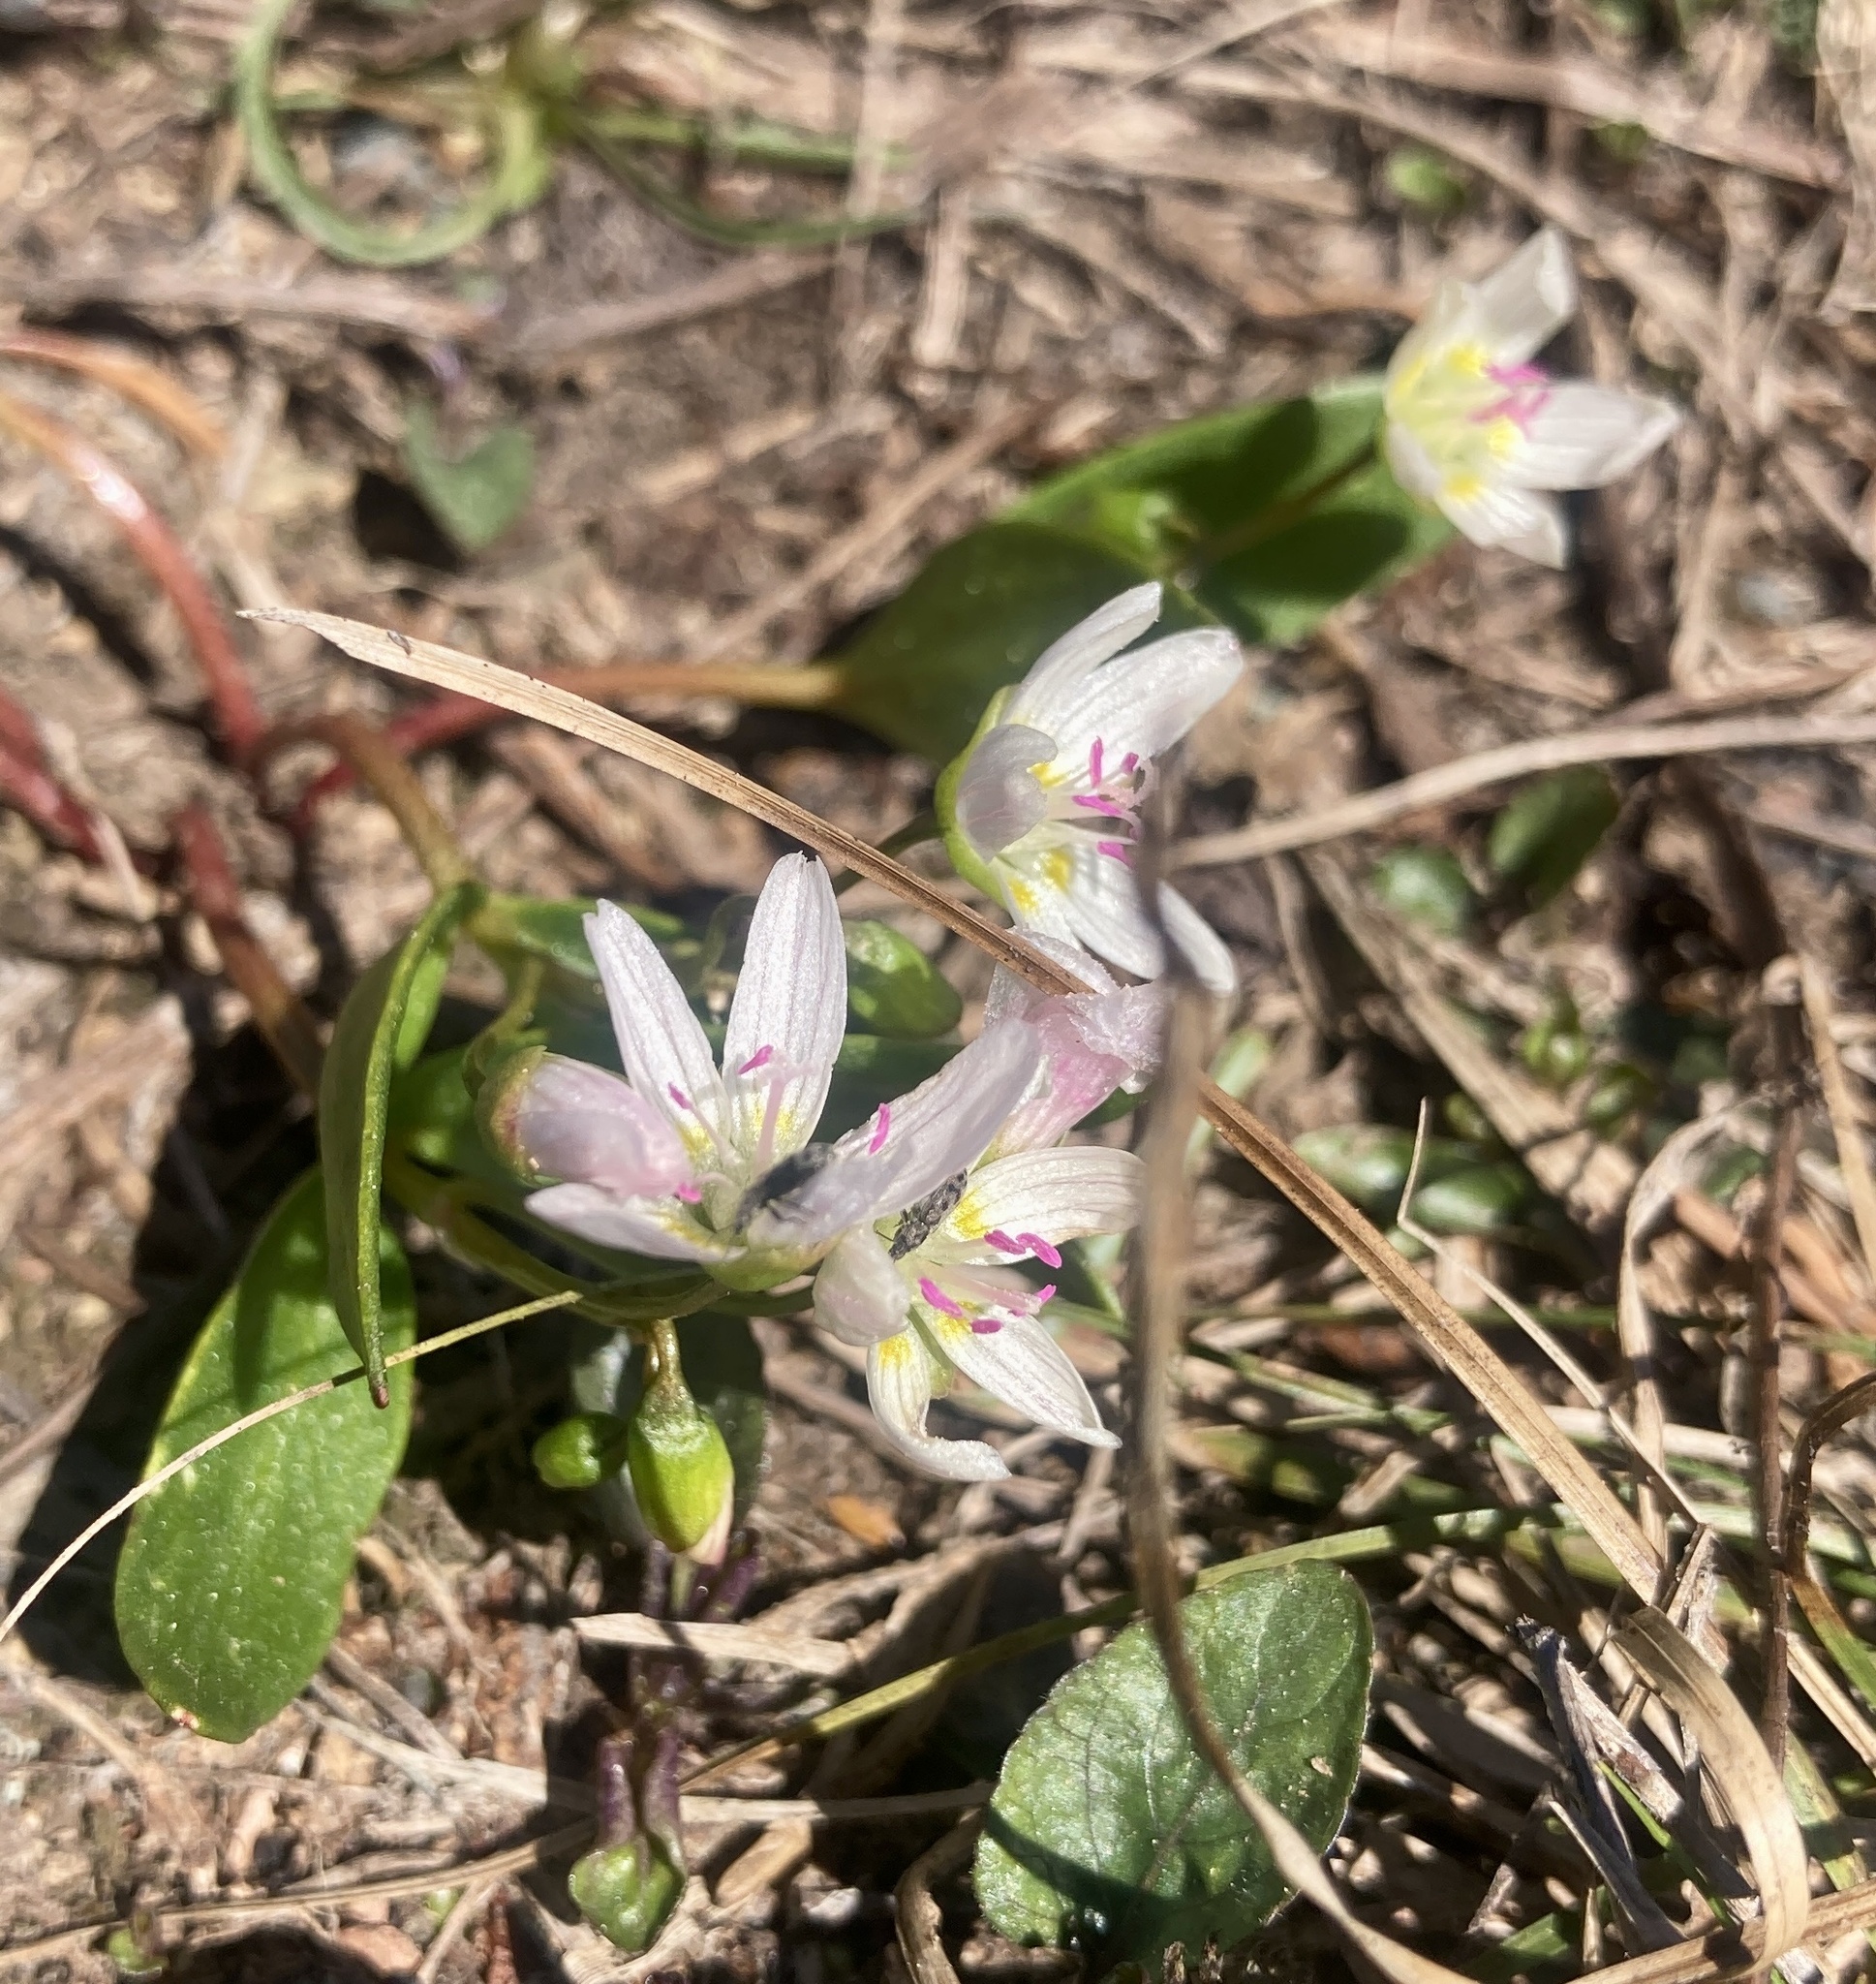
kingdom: Plantae
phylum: Tracheophyta
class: Magnoliopsida
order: Caryophyllales
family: Montiaceae
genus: Claytonia
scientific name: Claytonia lanceolata
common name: Western spring-beauty
